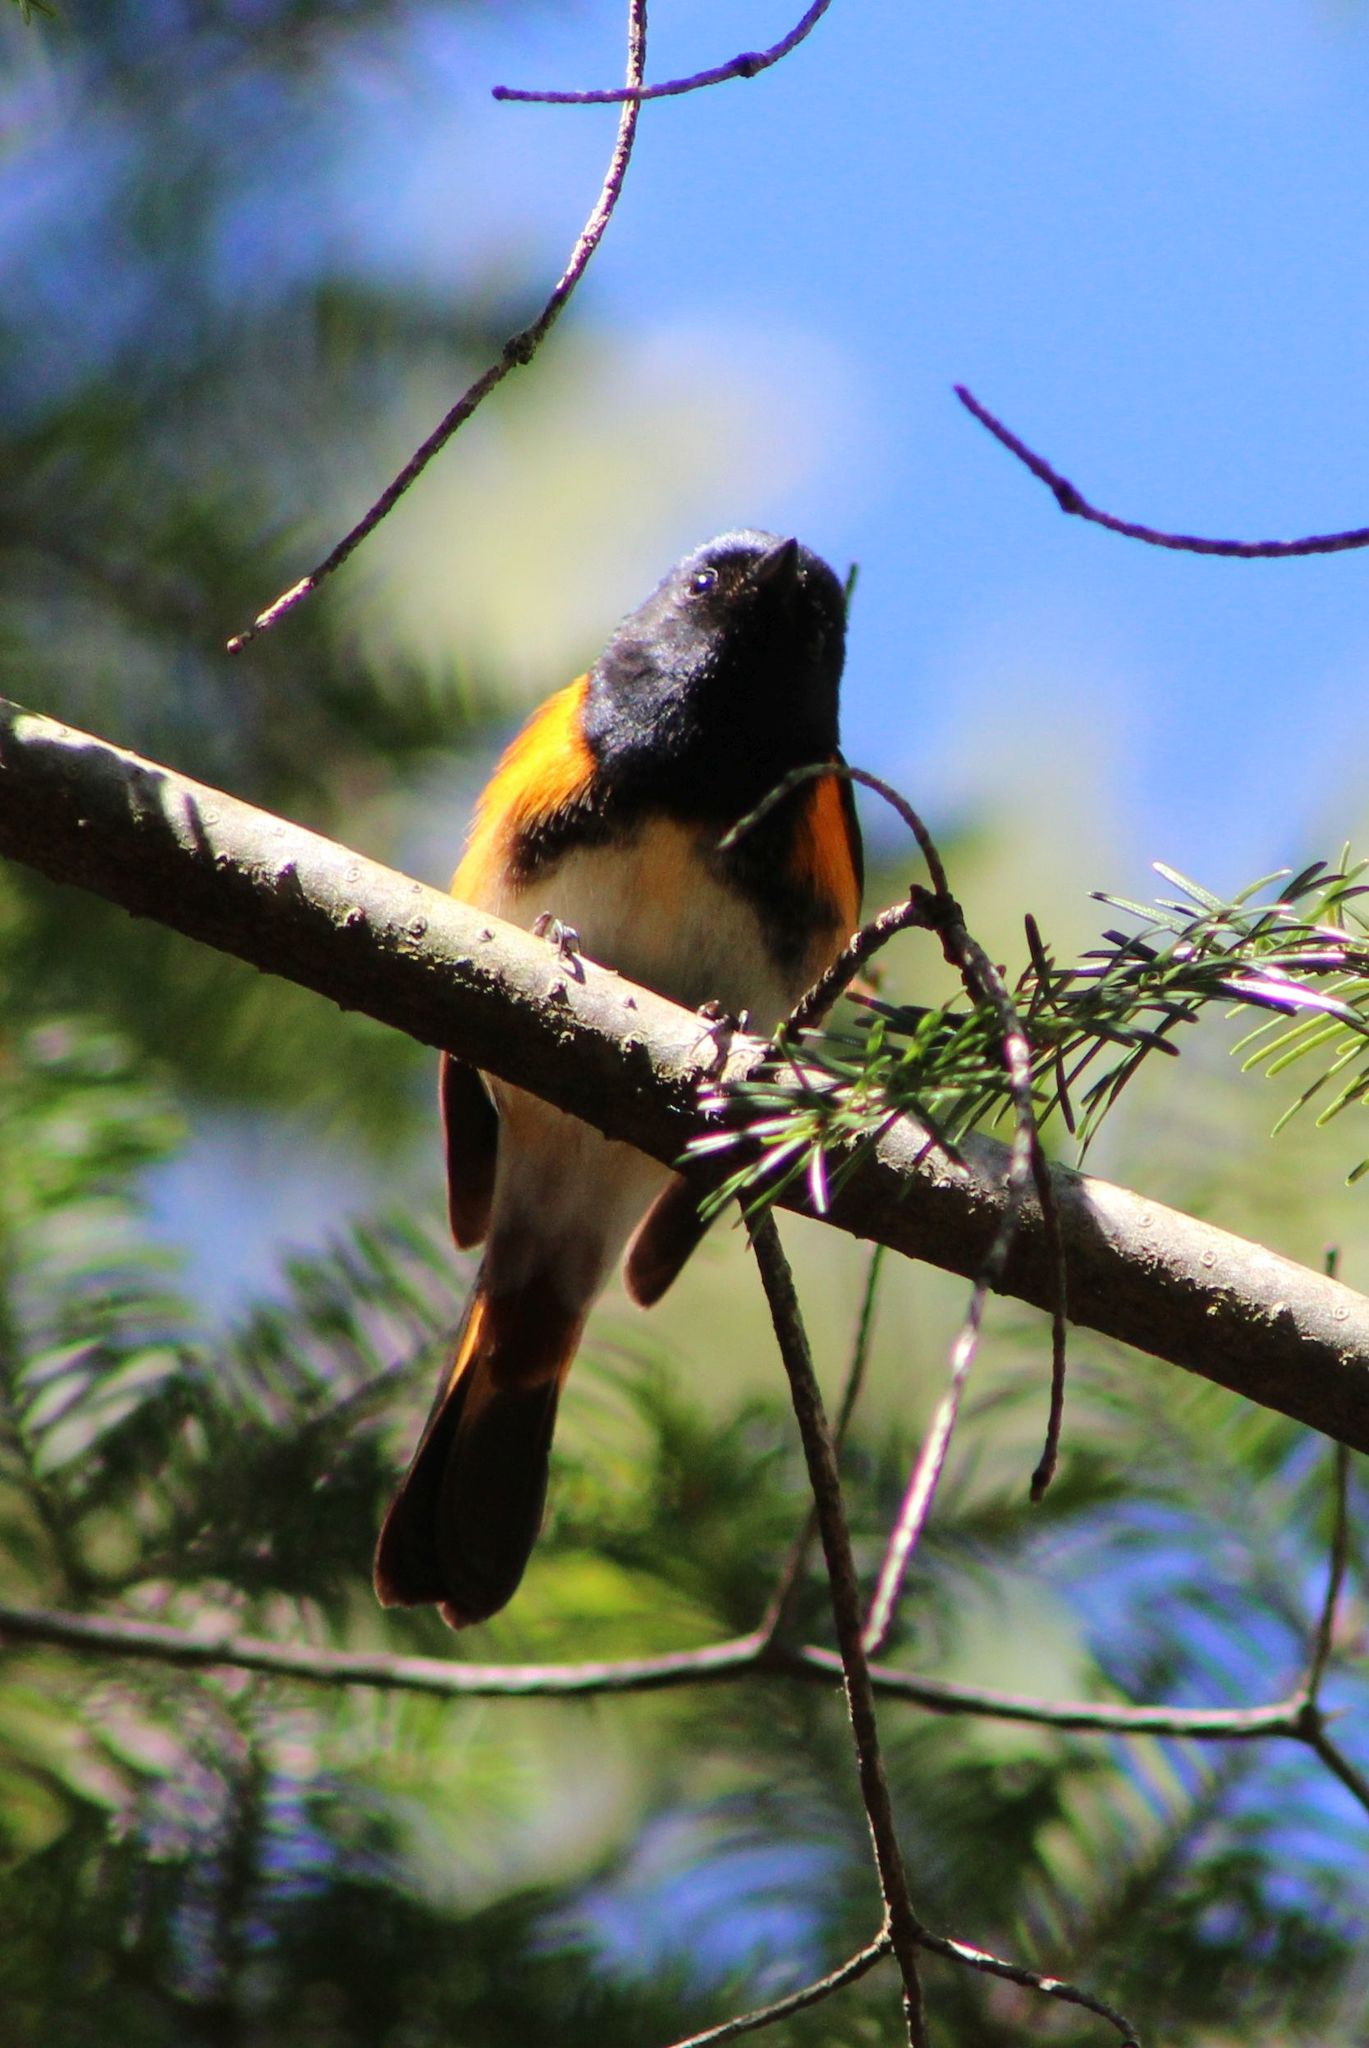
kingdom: Animalia
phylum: Chordata
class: Aves
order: Passeriformes
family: Parulidae
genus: Setophaga
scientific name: Setophaga ruticilla
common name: American redstart
